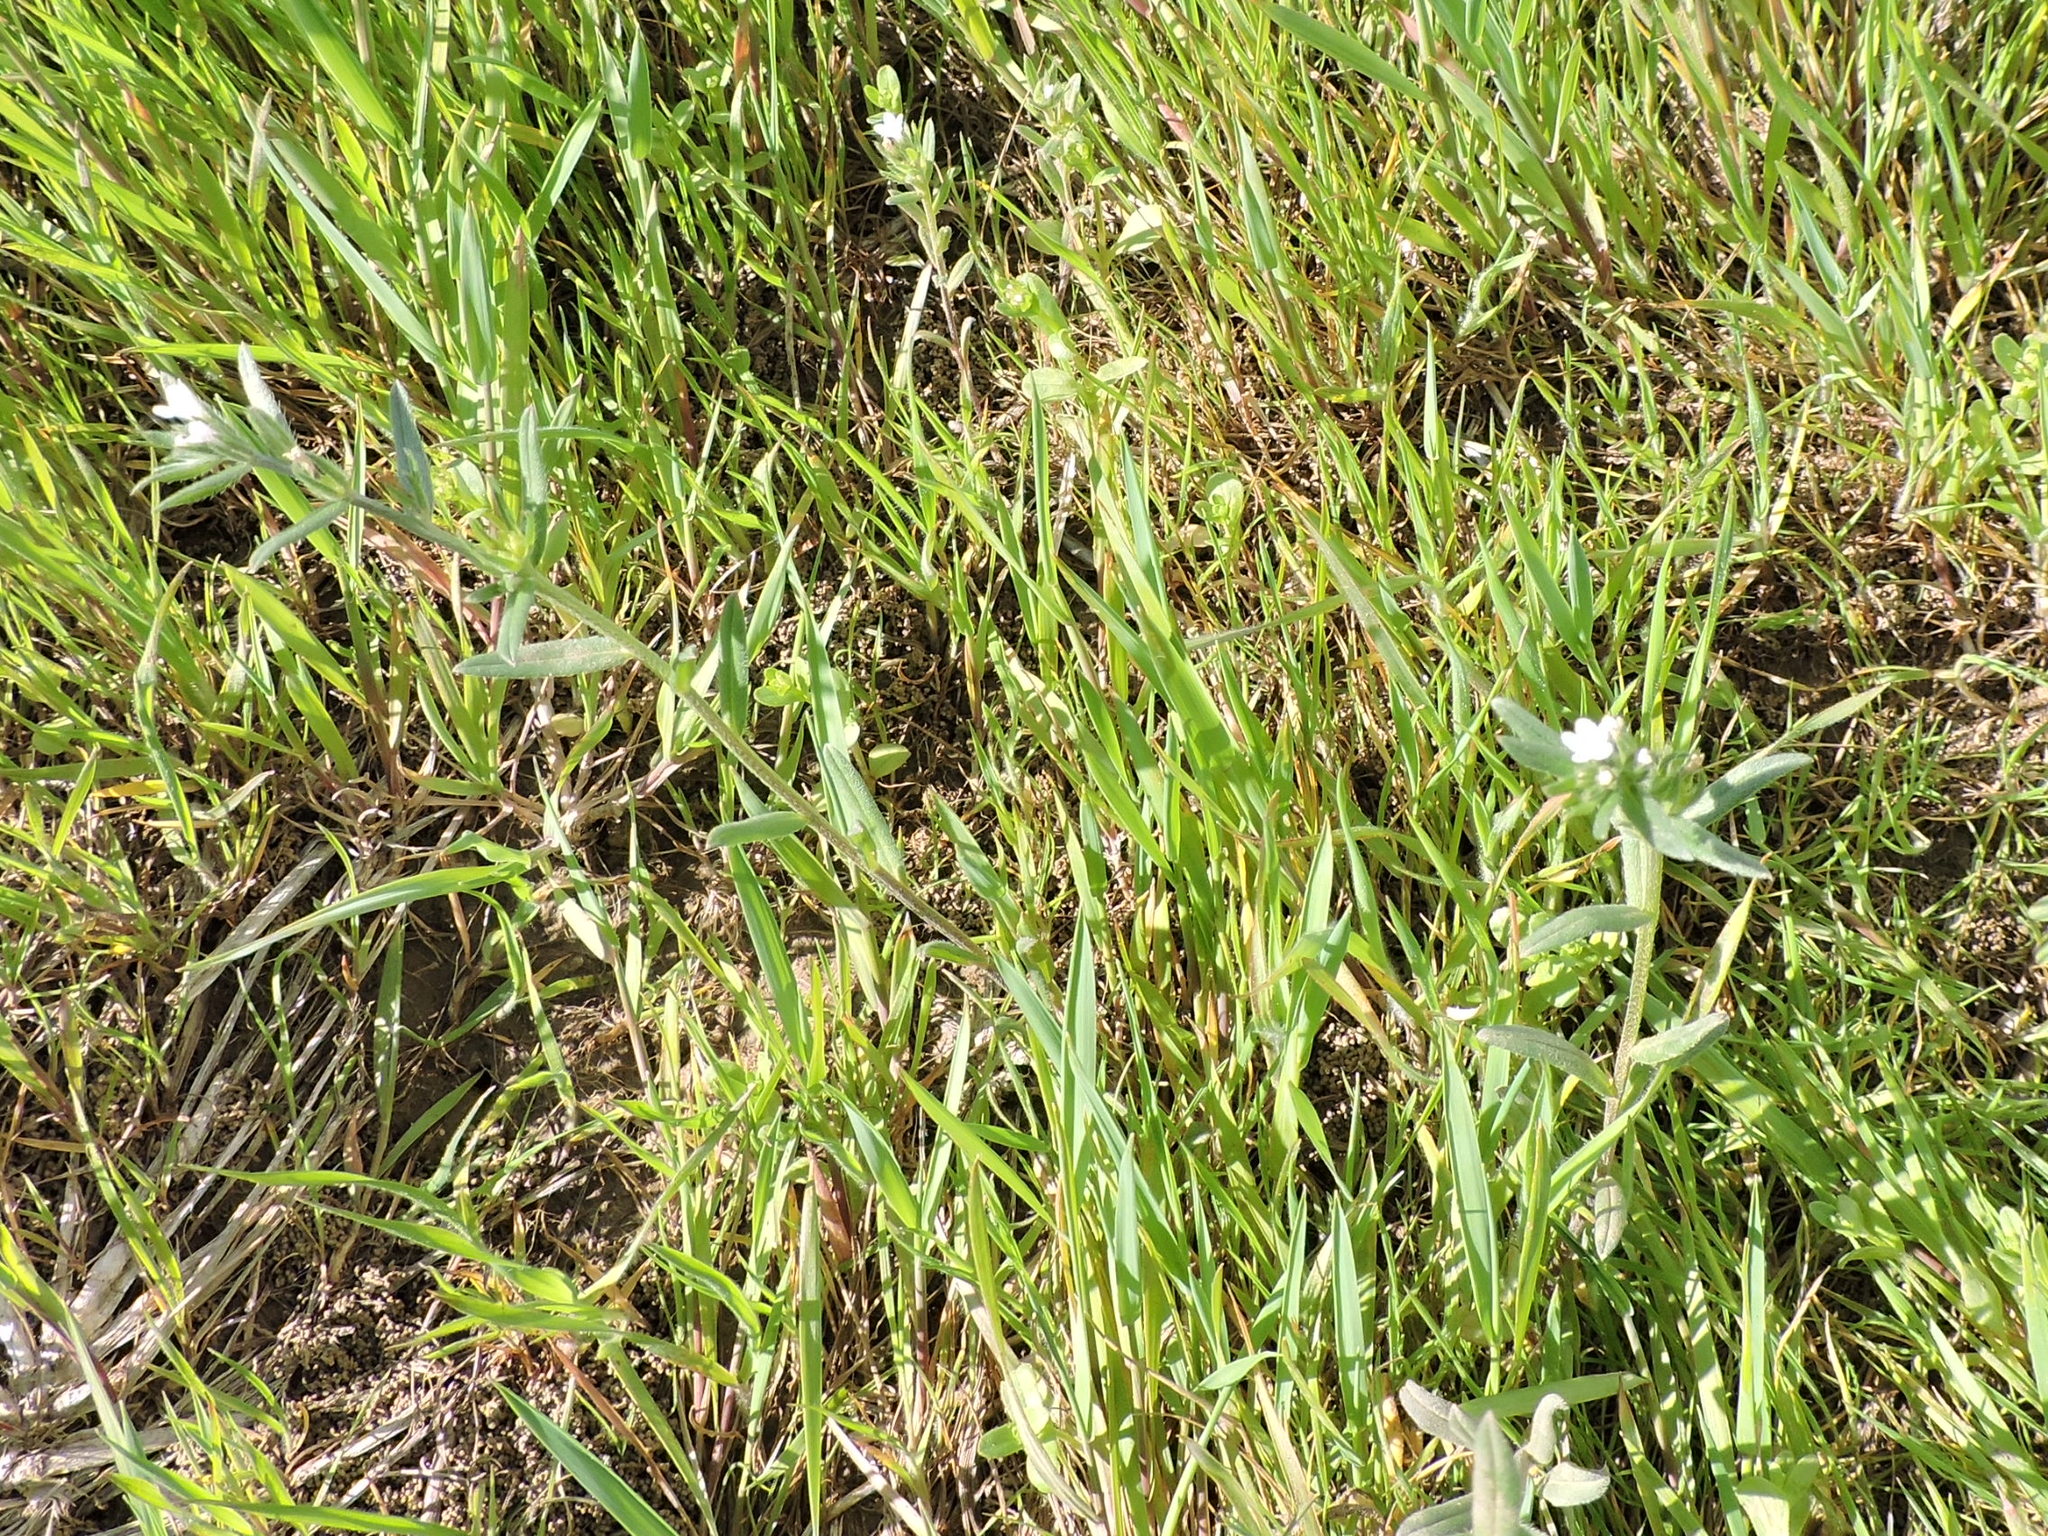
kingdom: Plantae
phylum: Tracheophyta
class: Magnoliopsida
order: Boraginales
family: Boraginaceae
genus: Buglossoides
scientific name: Buglossoides arvensis
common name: Corn gromwell
